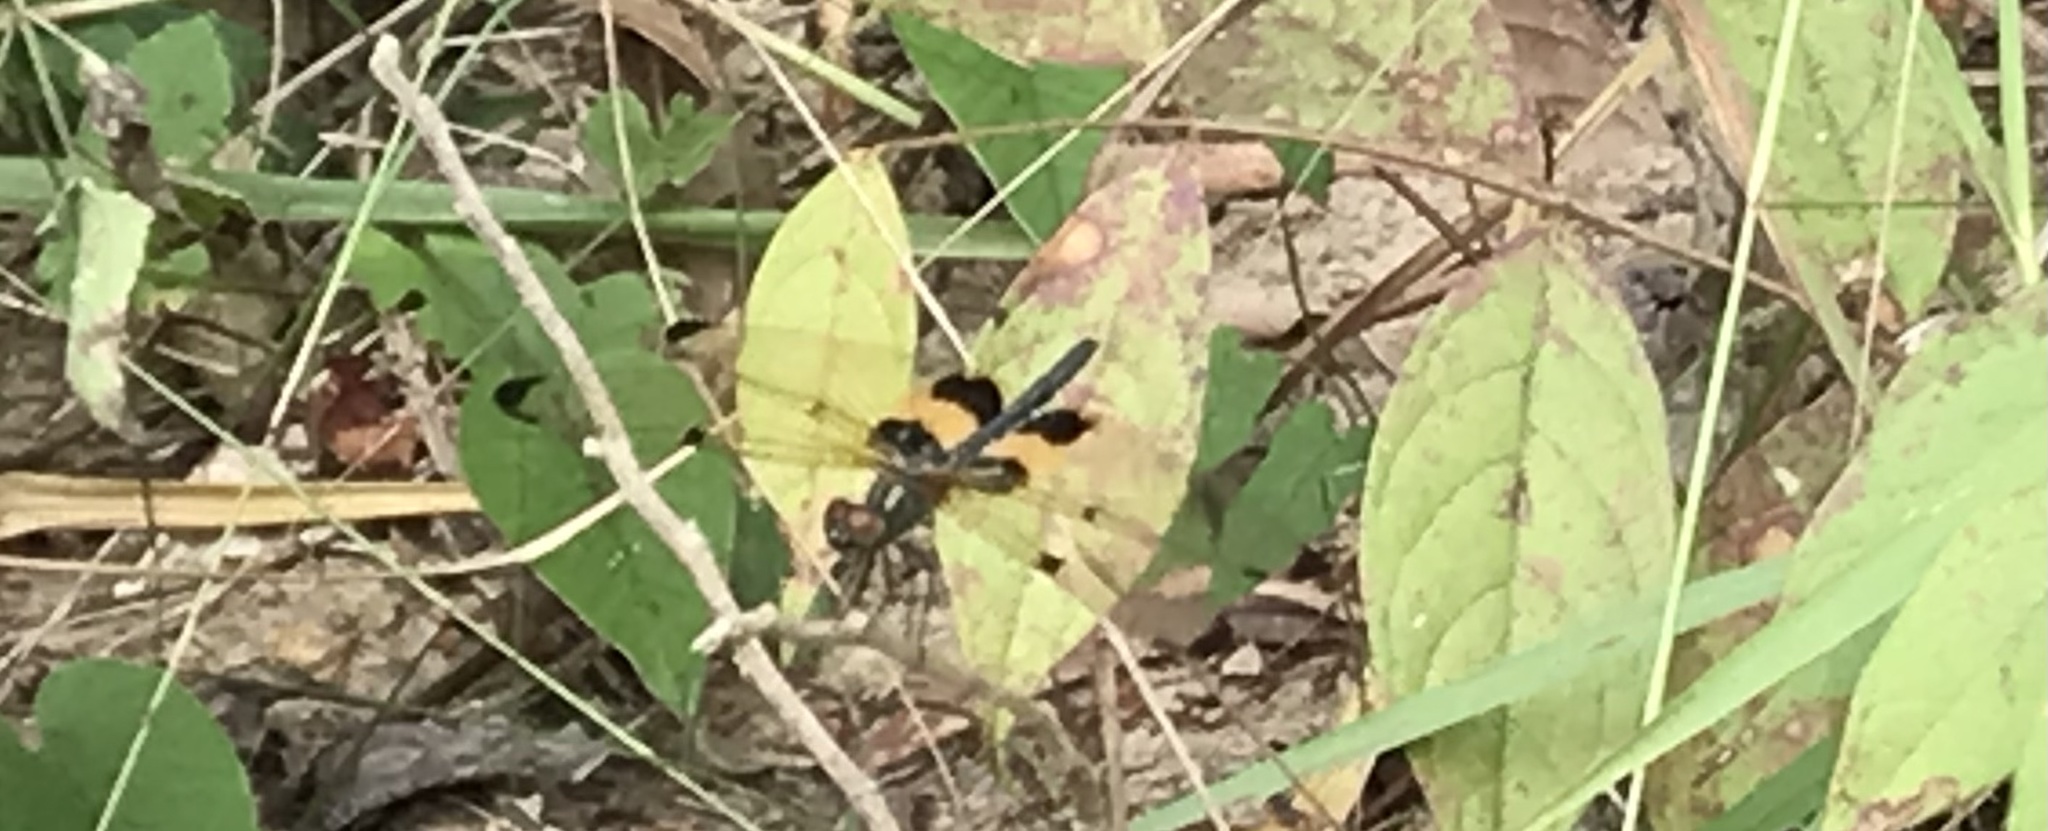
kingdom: Animalia
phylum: Arthropoda
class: Insecta
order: Odonata
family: Libellulidae
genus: Rhyothemis
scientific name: Rhyothemis phyllis
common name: Yellow-barred flutterer
